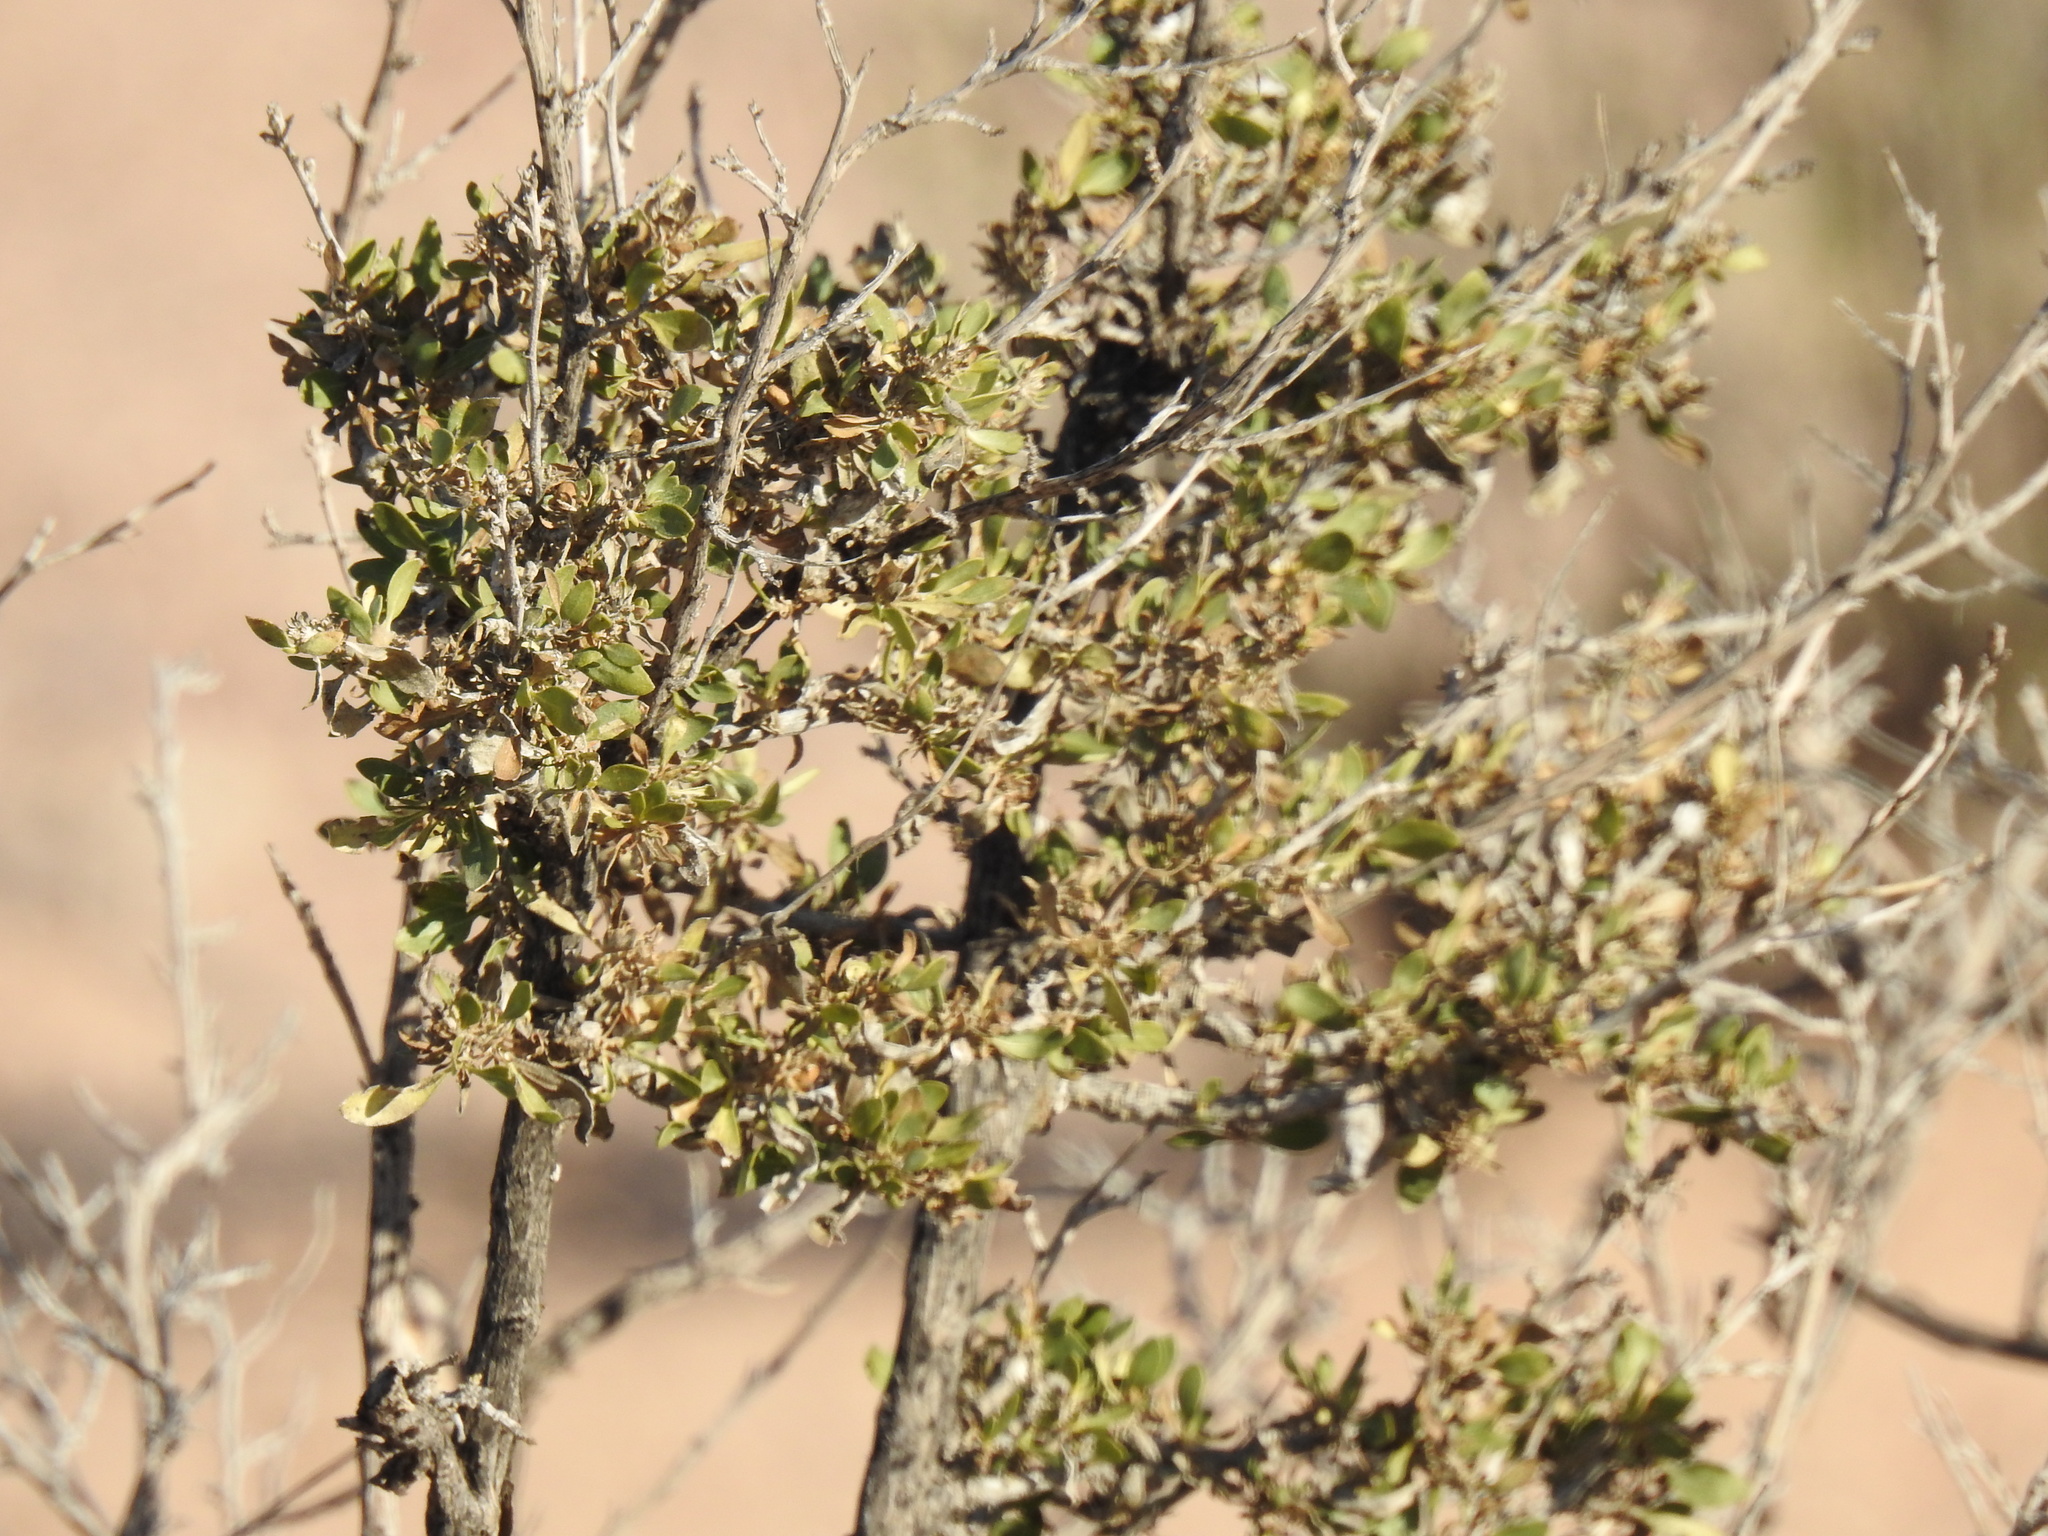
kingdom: Plantae
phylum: Tracheophyta
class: Magnoliopsida
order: Asterales
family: Asteraceae
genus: Flourensia
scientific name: Flourensia cernua
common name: Varnishbush
